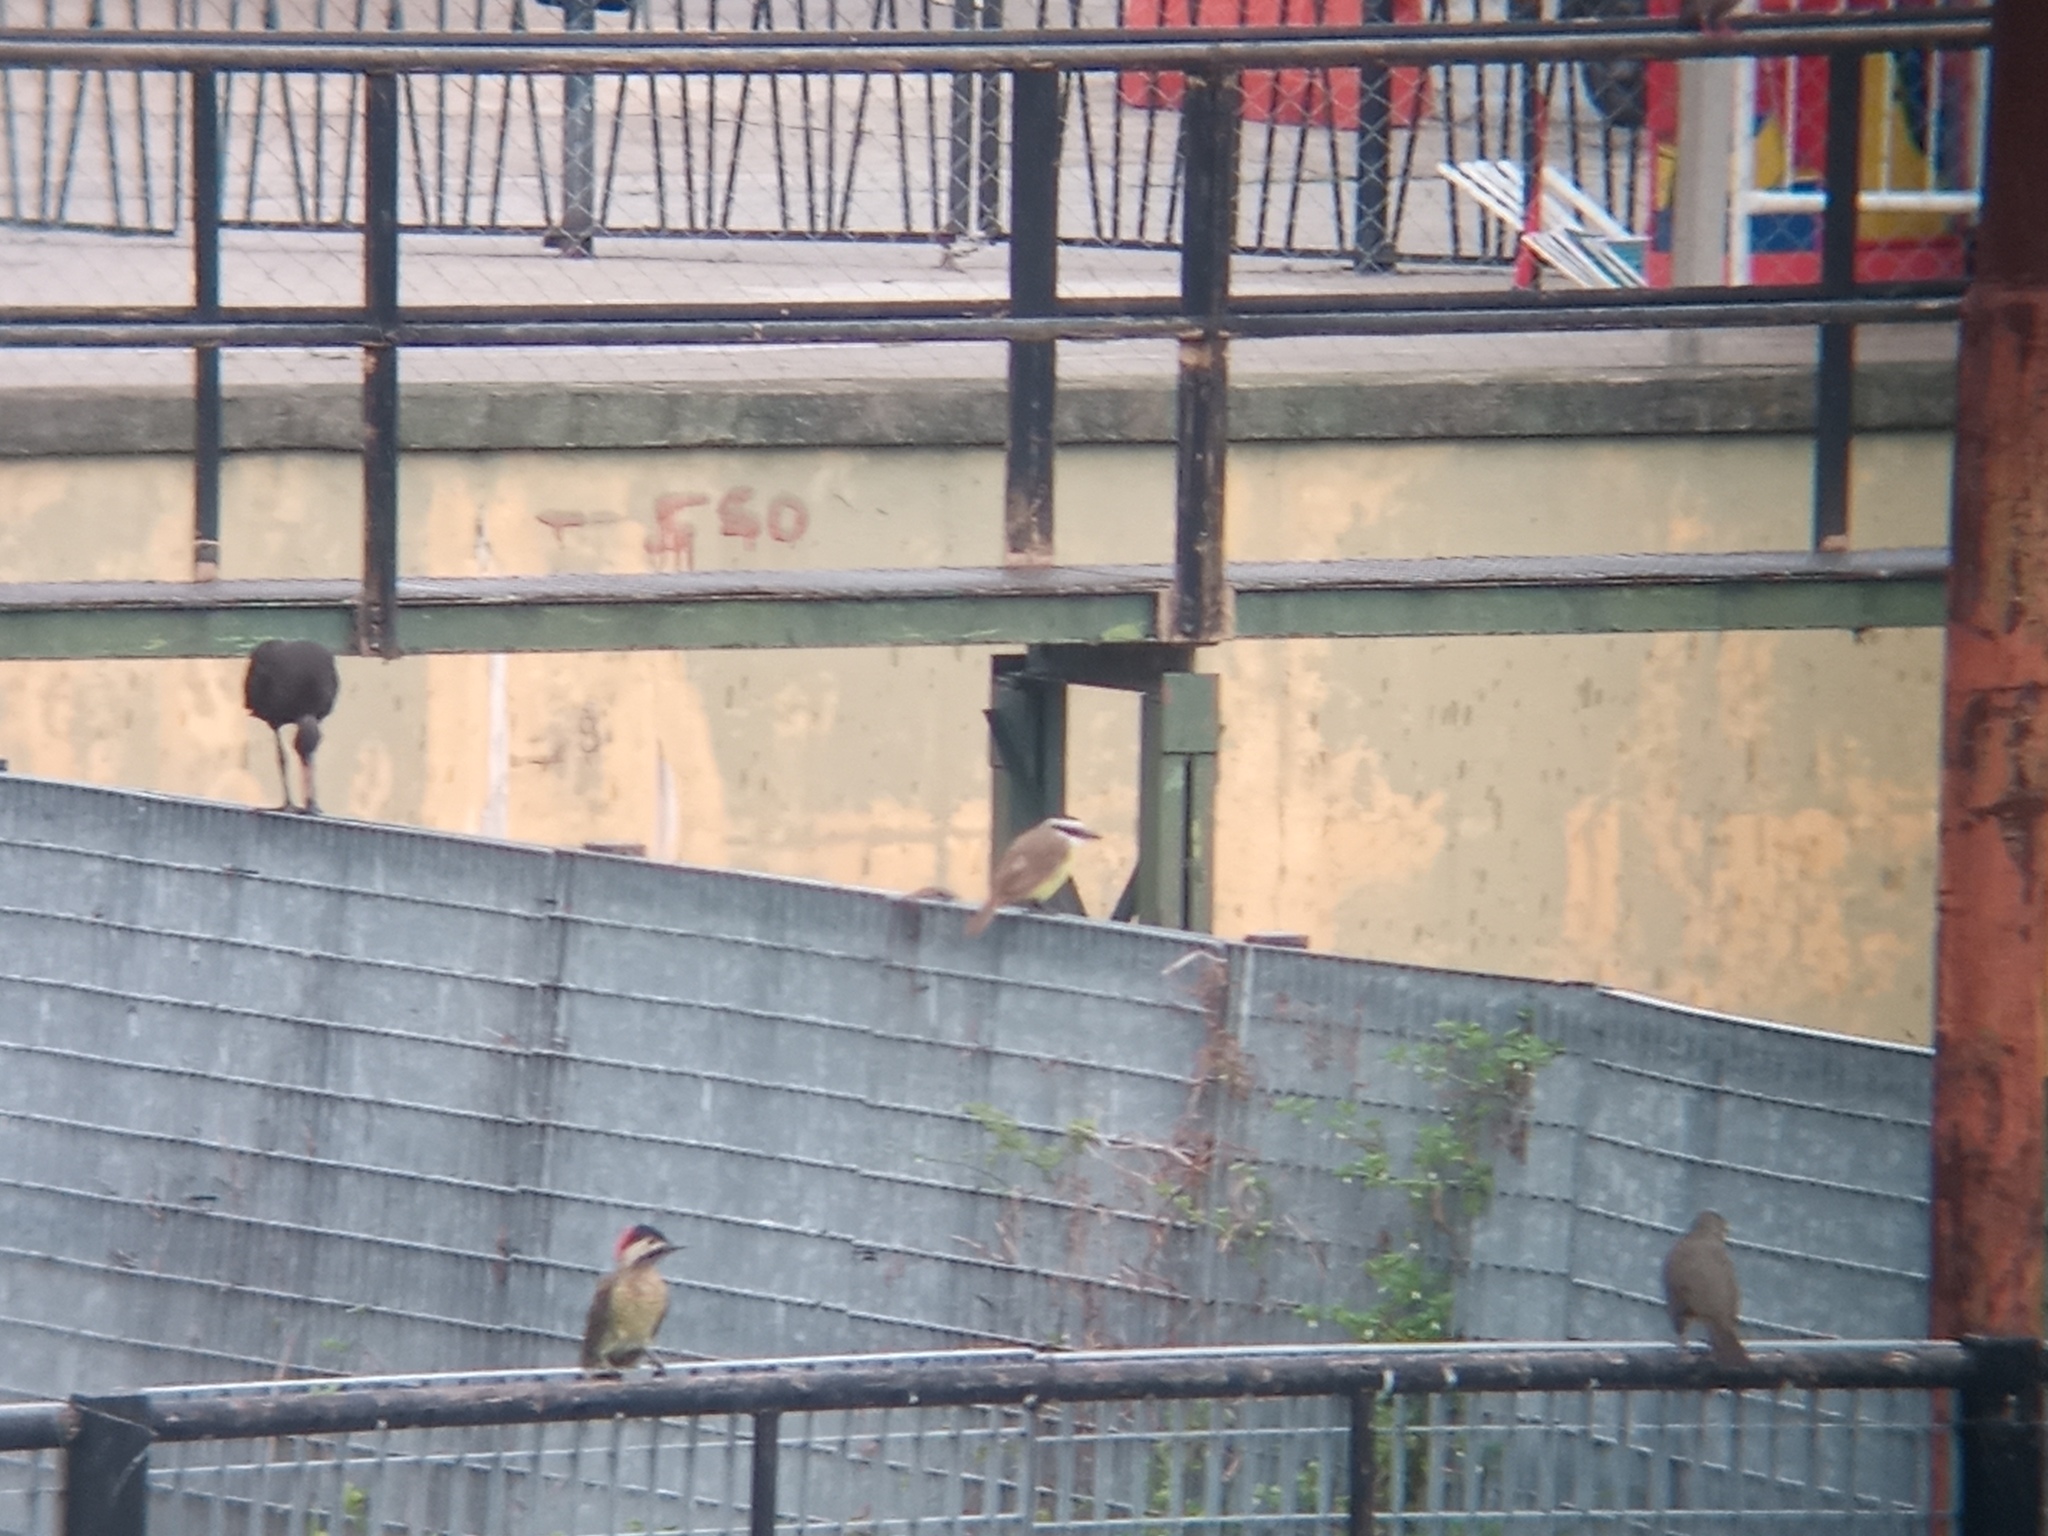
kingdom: Animalia
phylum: Chordata
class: Aves
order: Passeriformes
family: Tyrannidae
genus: Pitangus
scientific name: Pitangus sulphuratus
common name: Great kiskadee
